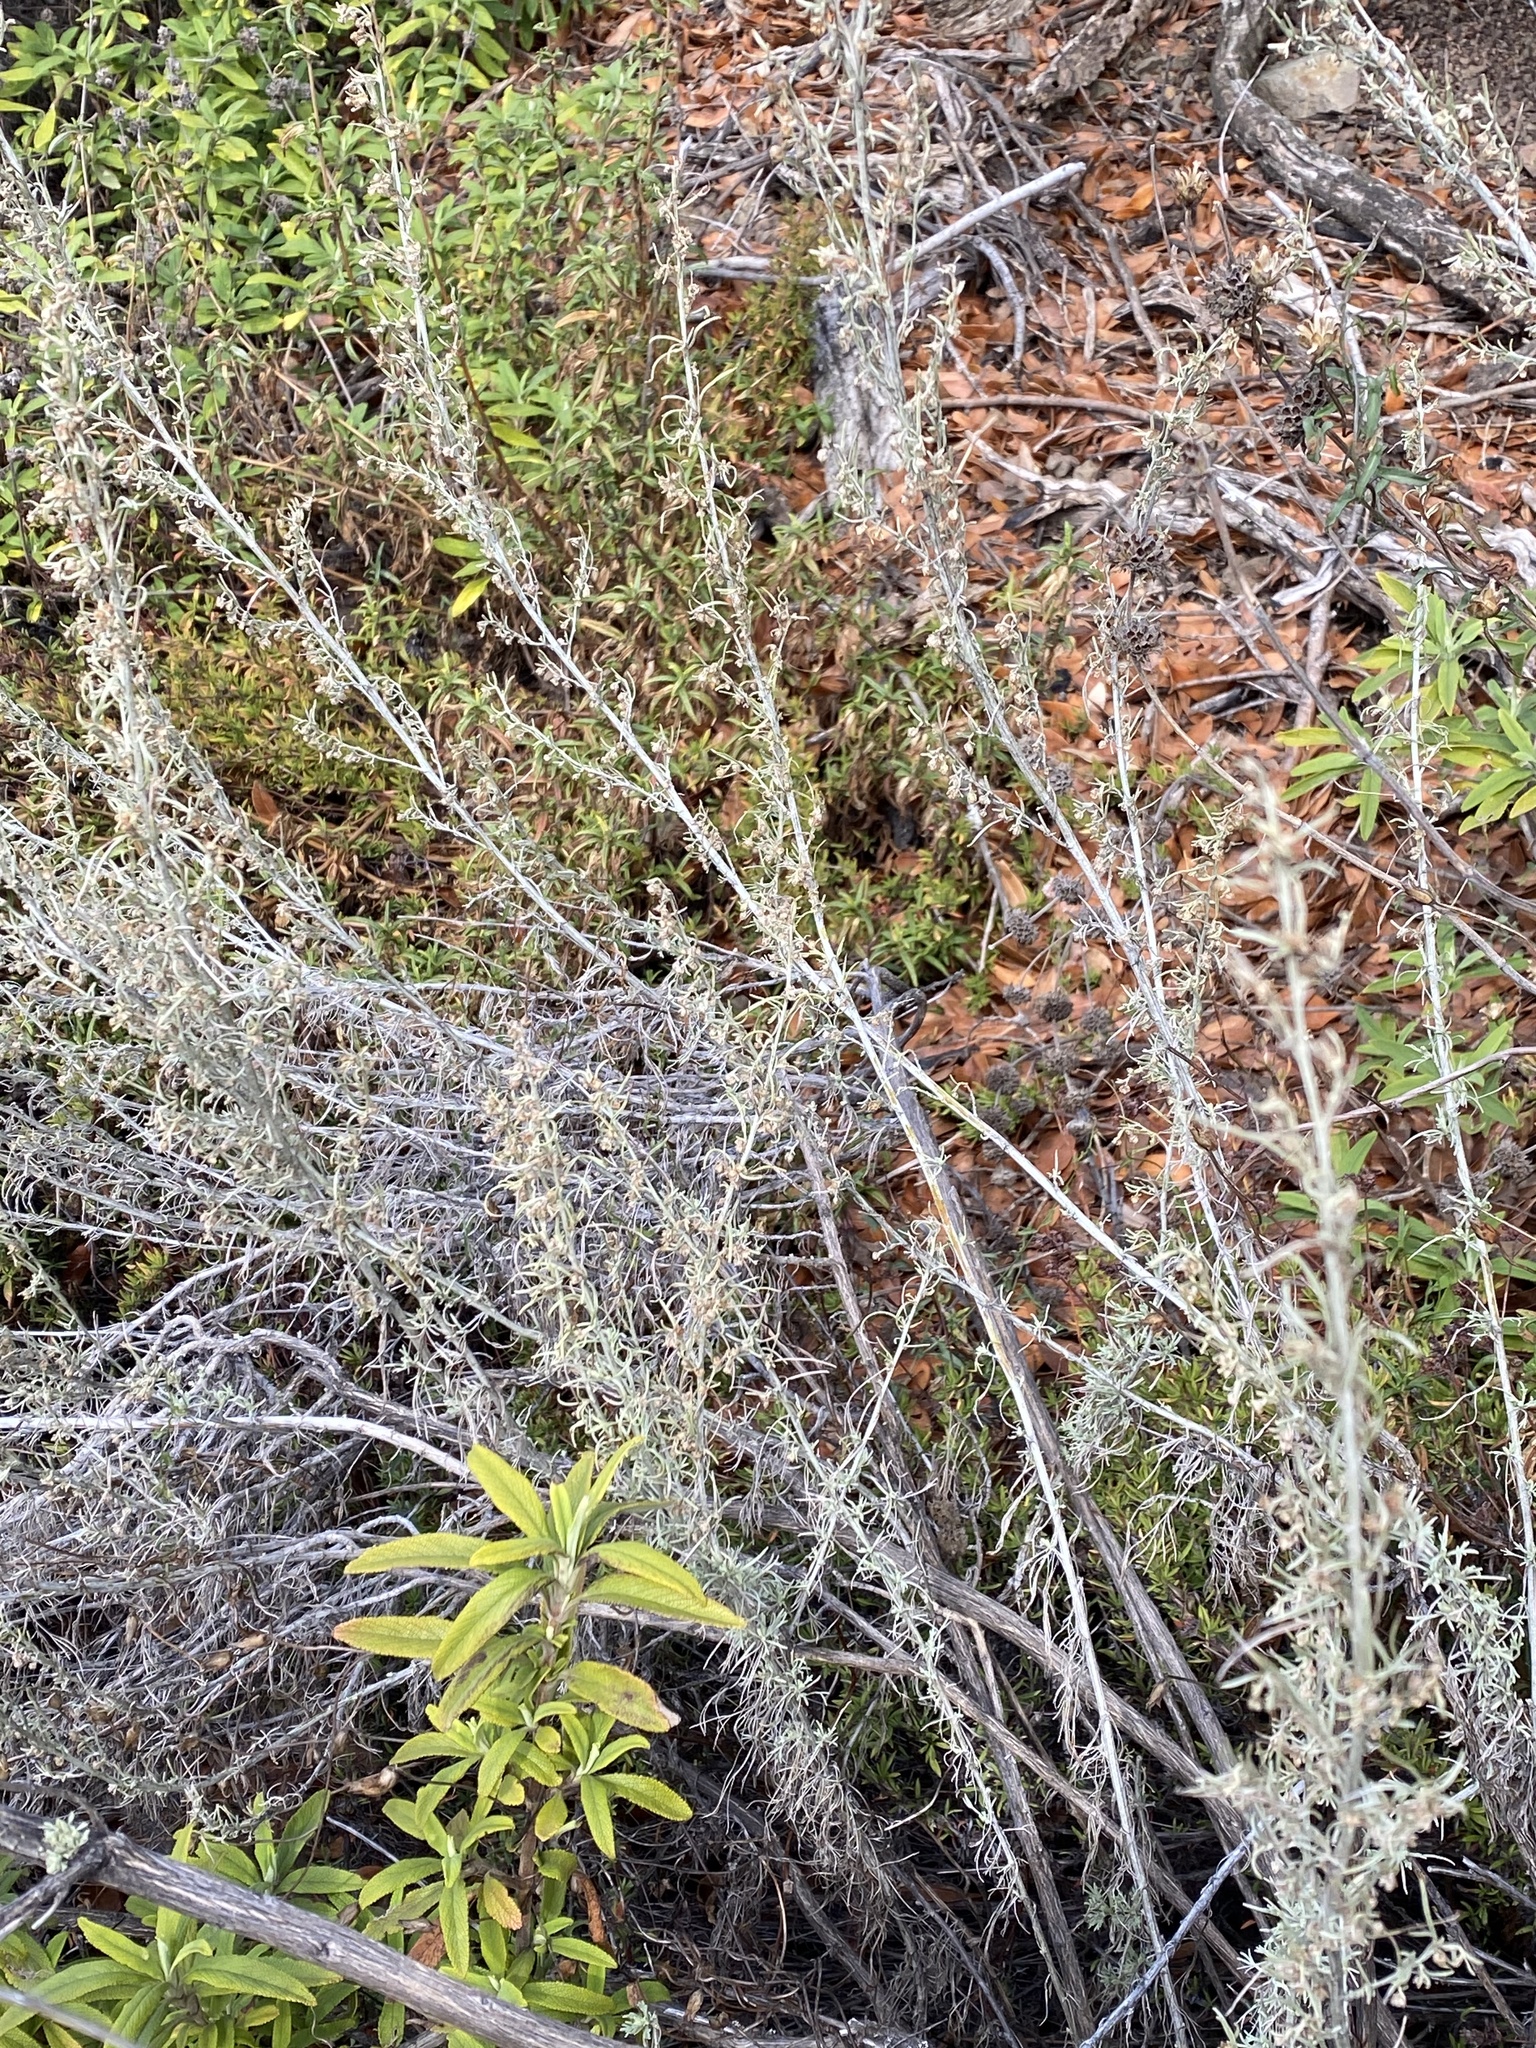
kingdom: Plantae
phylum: Tracheophyta
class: Magnoliopsida
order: Asterales
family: Asteraceae
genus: Artemisia
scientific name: Artemisia californica
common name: California sagebrush
